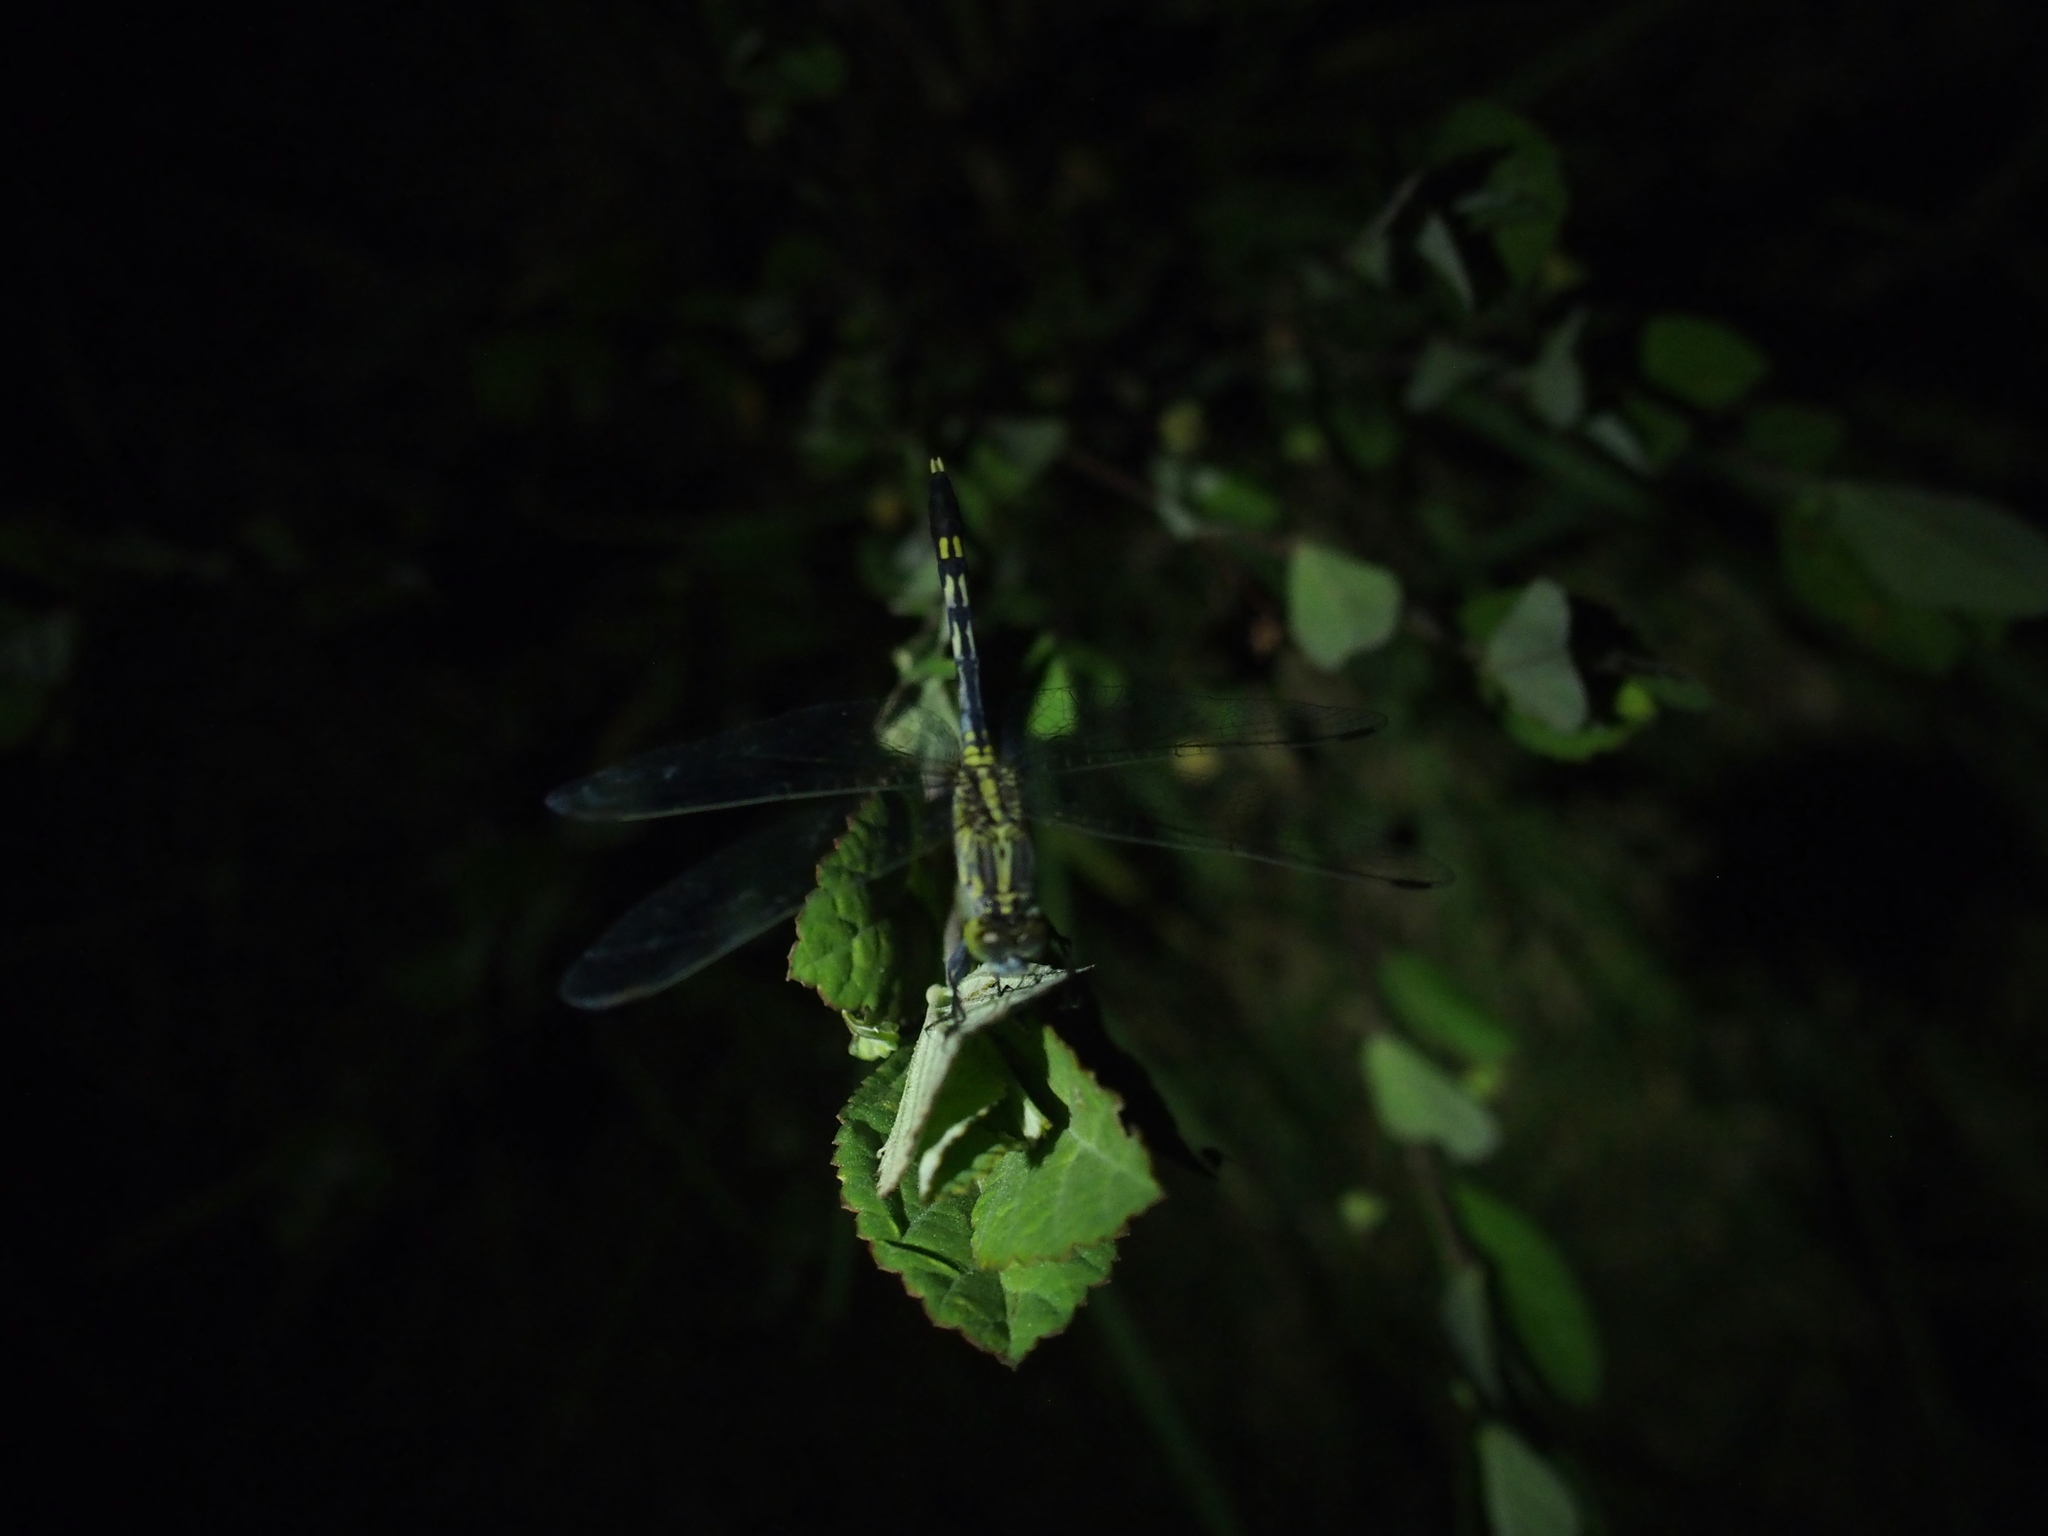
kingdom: Animalia
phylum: Arthropoda
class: Insecta
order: Odonata
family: Libellulidae
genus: Diplacodes
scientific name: Diplacodes trivialis
